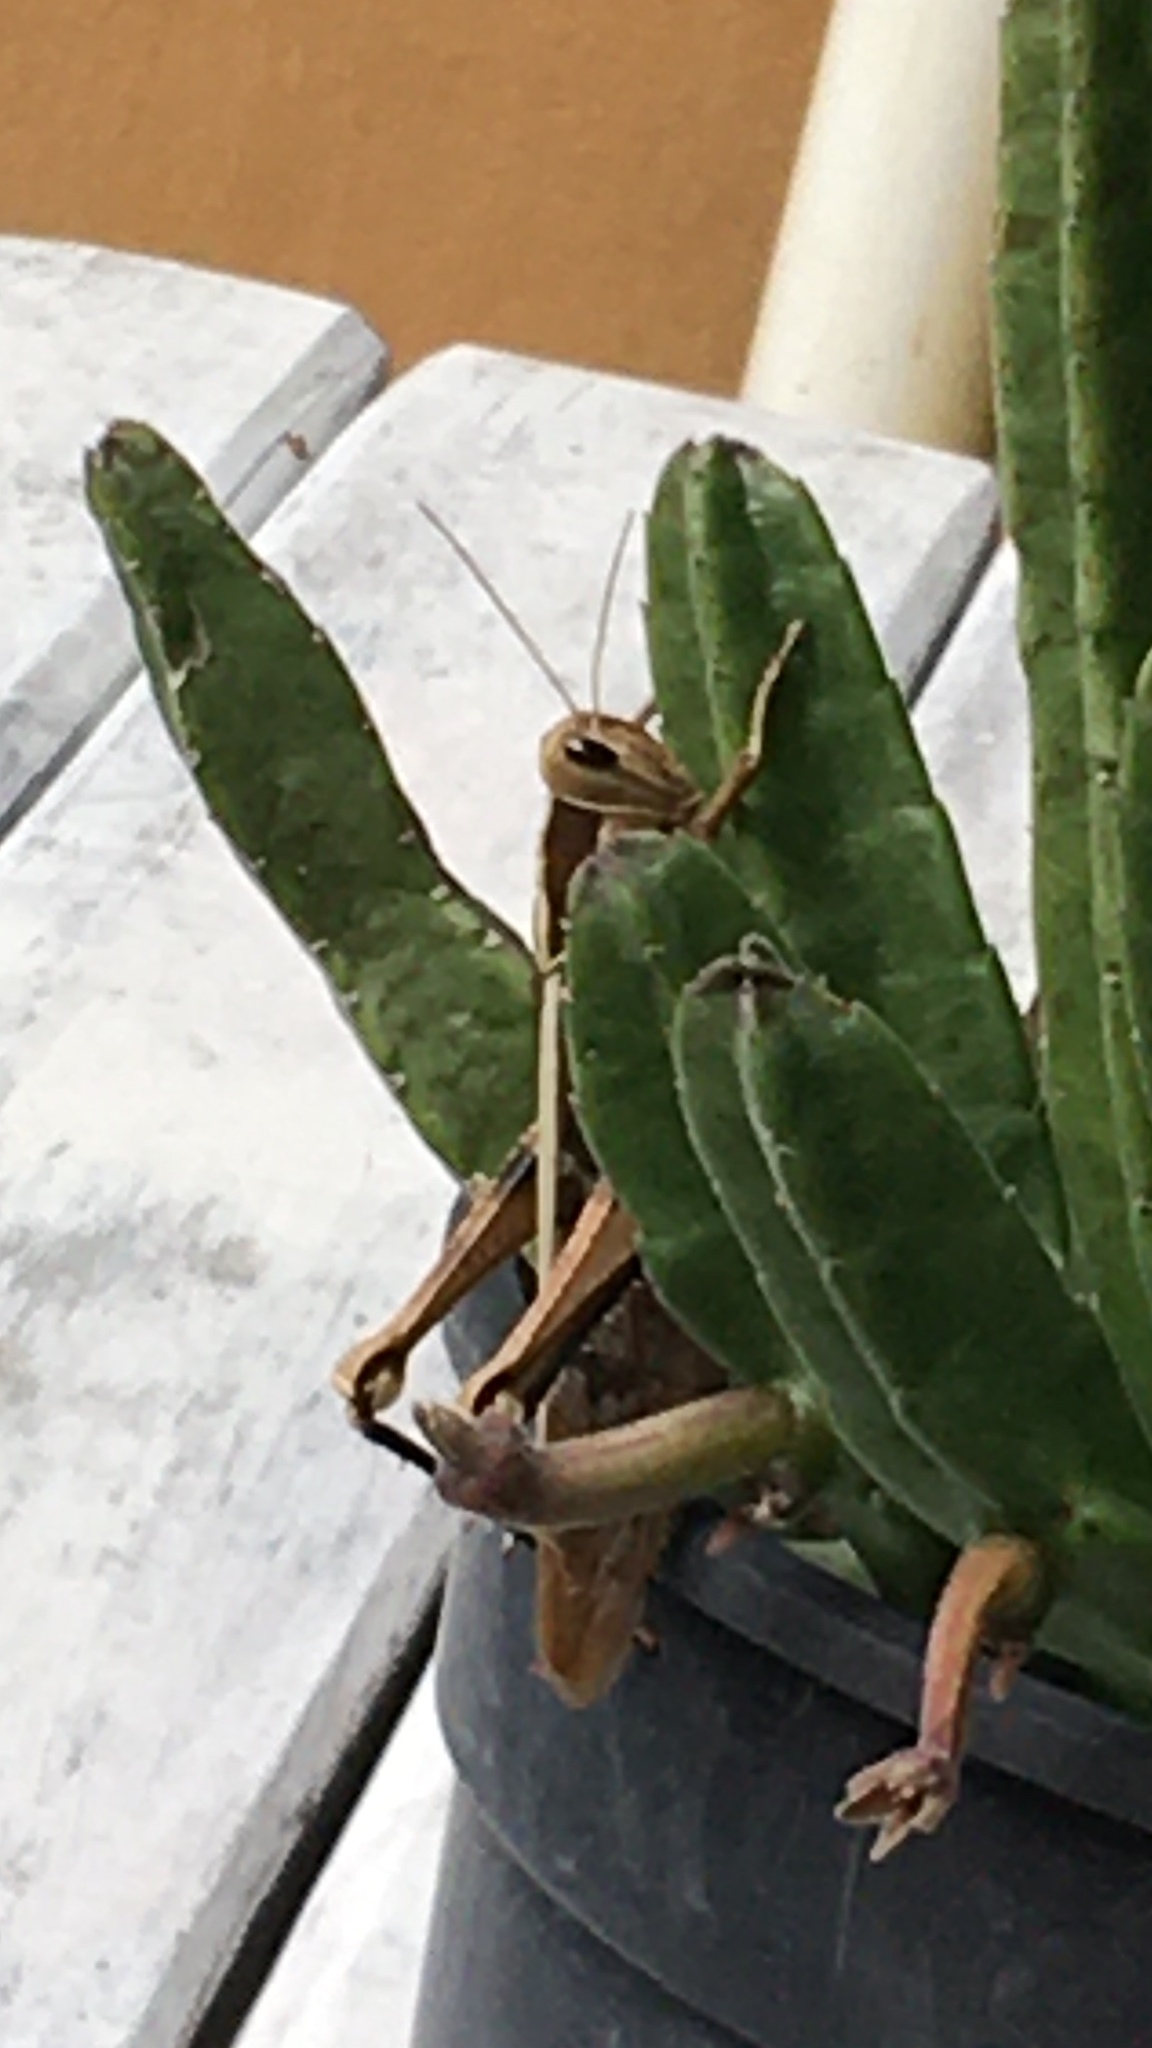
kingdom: Animalia
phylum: Arthropoda
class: Insecta
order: Orthoptera
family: Acrididae
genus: Acanthacris
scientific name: Acanthacris ruficornis
